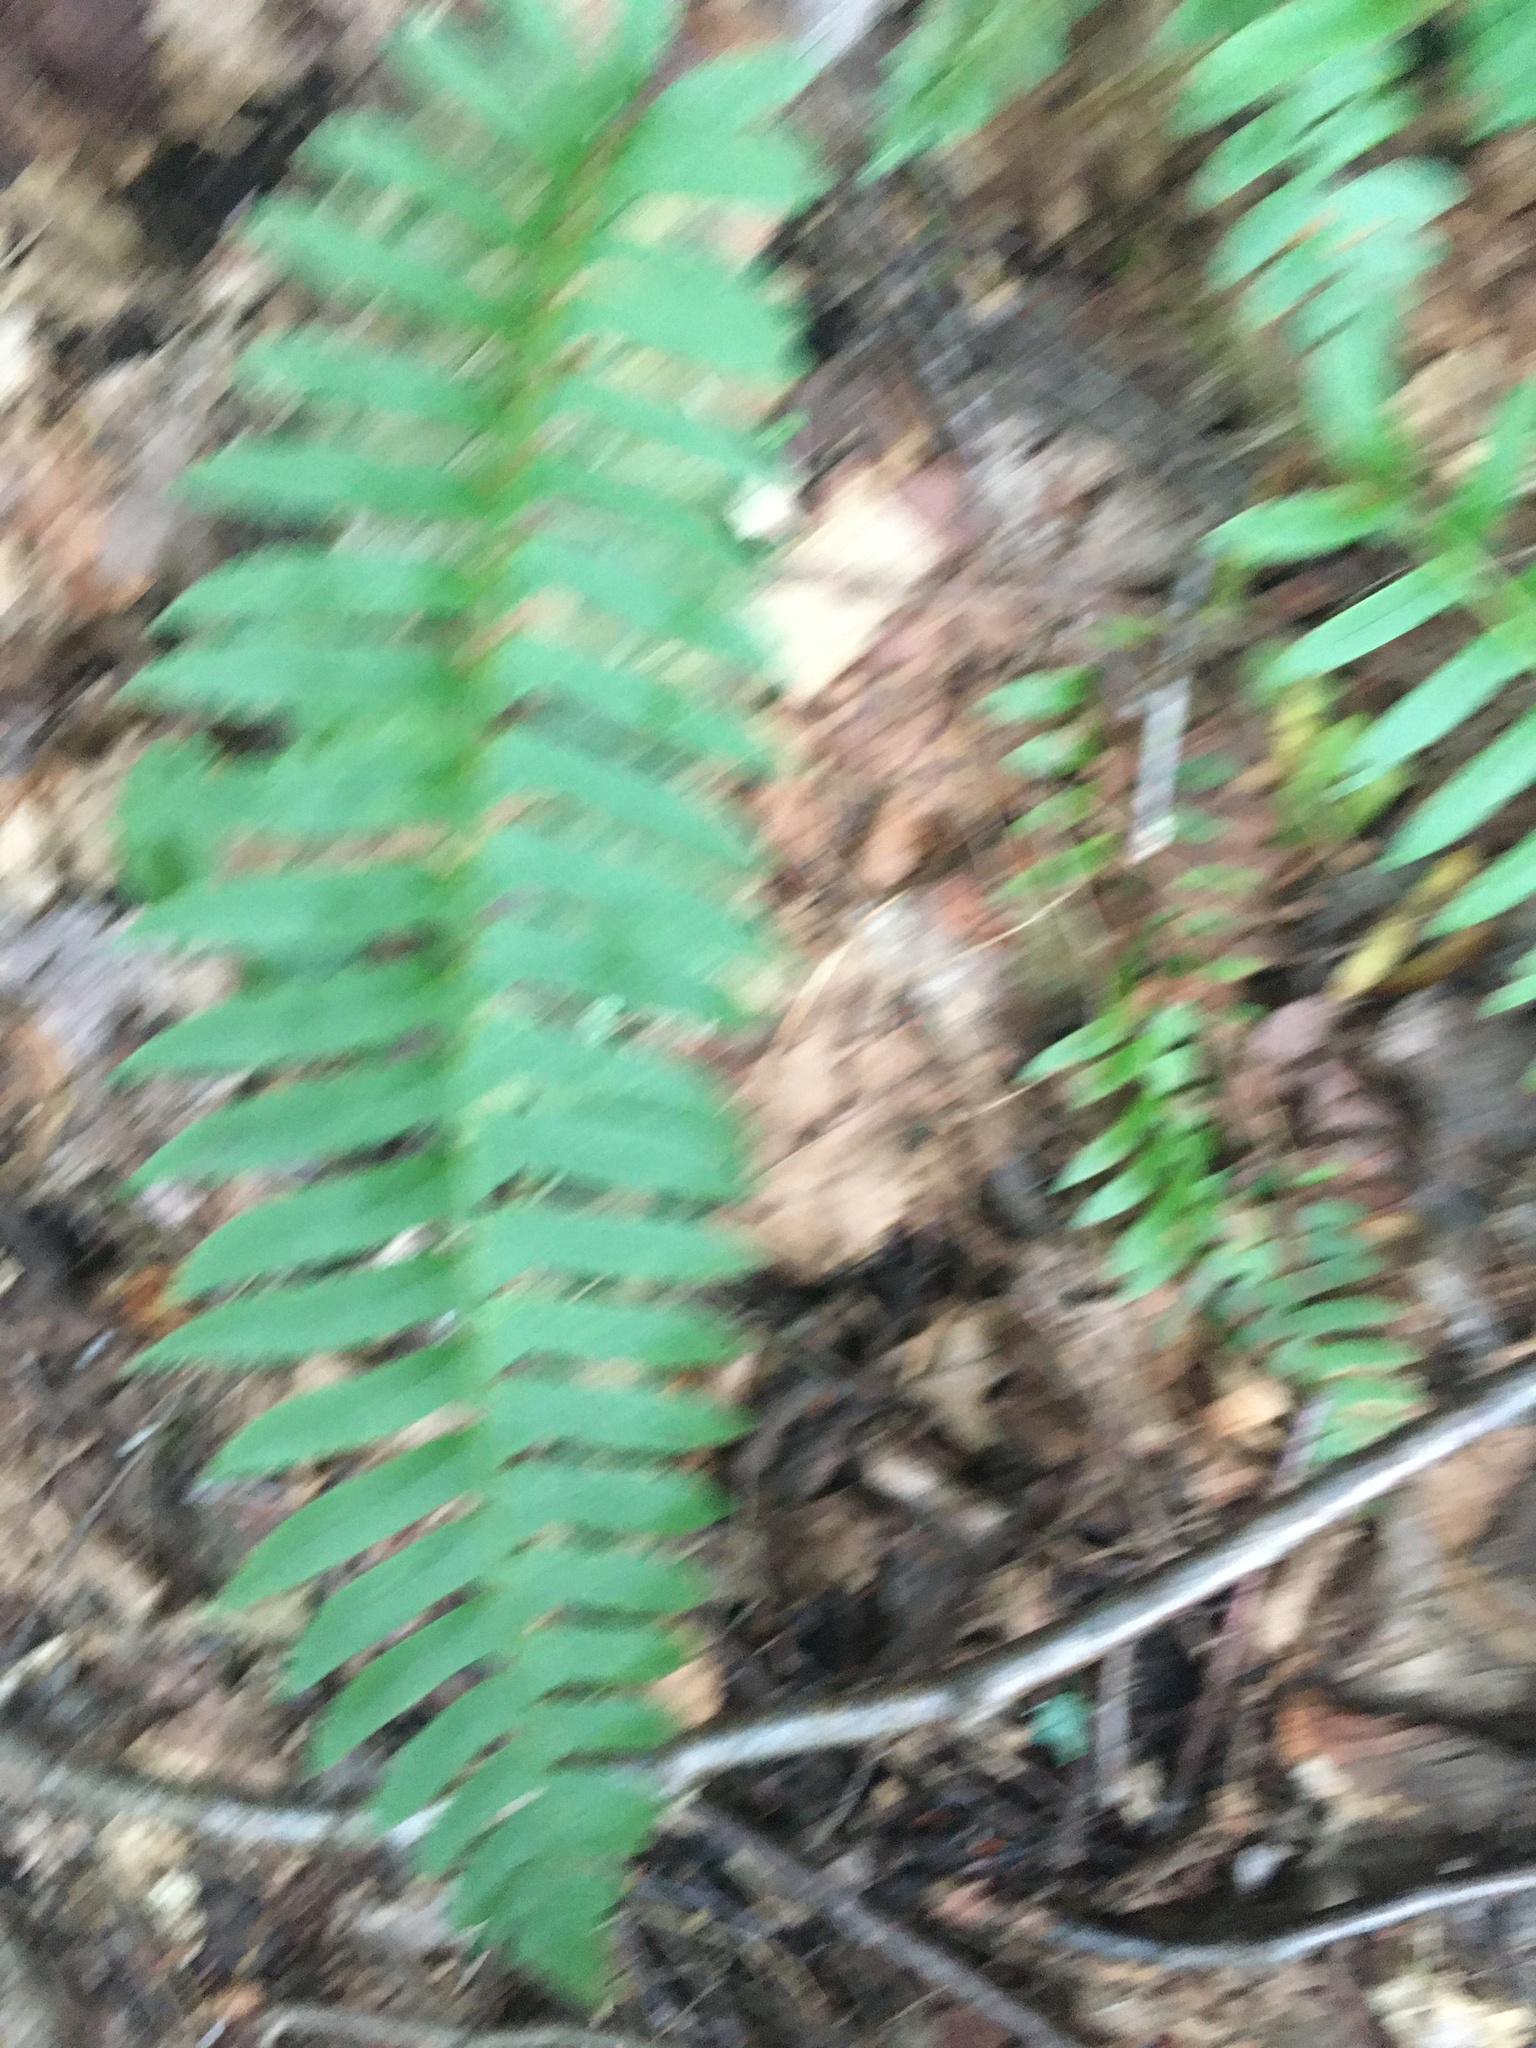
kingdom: Plantae
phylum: Tracheophyta
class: Polypodiopsida
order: Polypodiales
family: Dryopteridaceae
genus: Polystichum
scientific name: Polystichum acrostichoides
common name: Christmas fern
